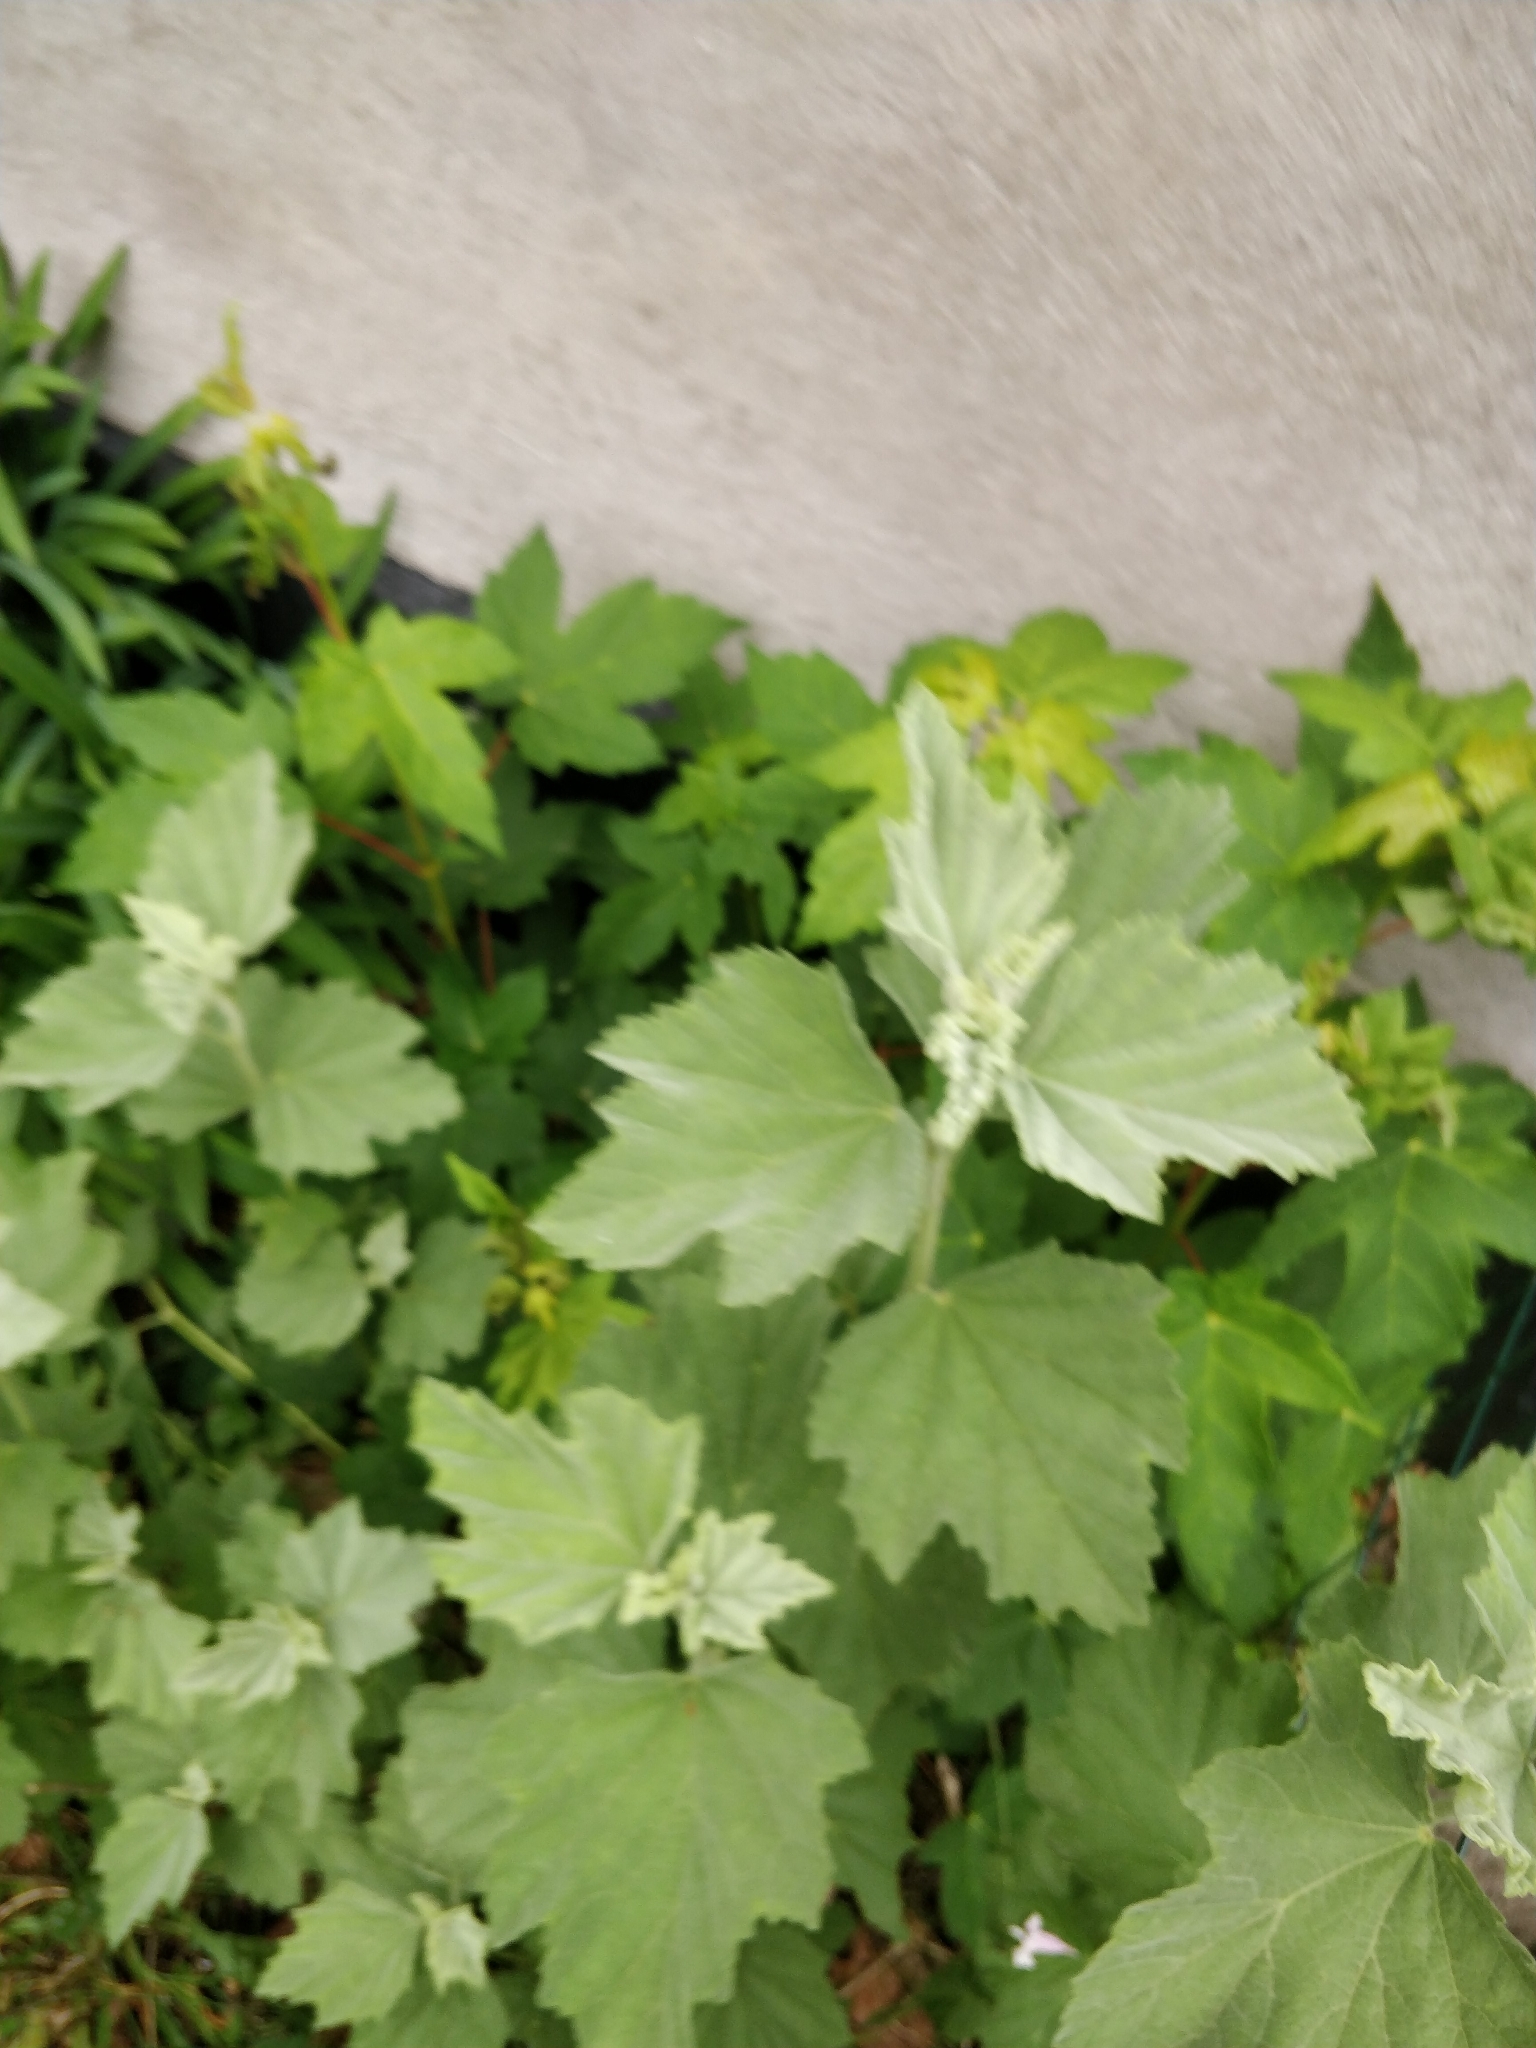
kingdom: Plantae
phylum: Tracheophyta
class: Magnoliopsida
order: Malvales
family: Malvaceae
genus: Althaea
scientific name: Althaea officinalis
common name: Marsh-mallow
